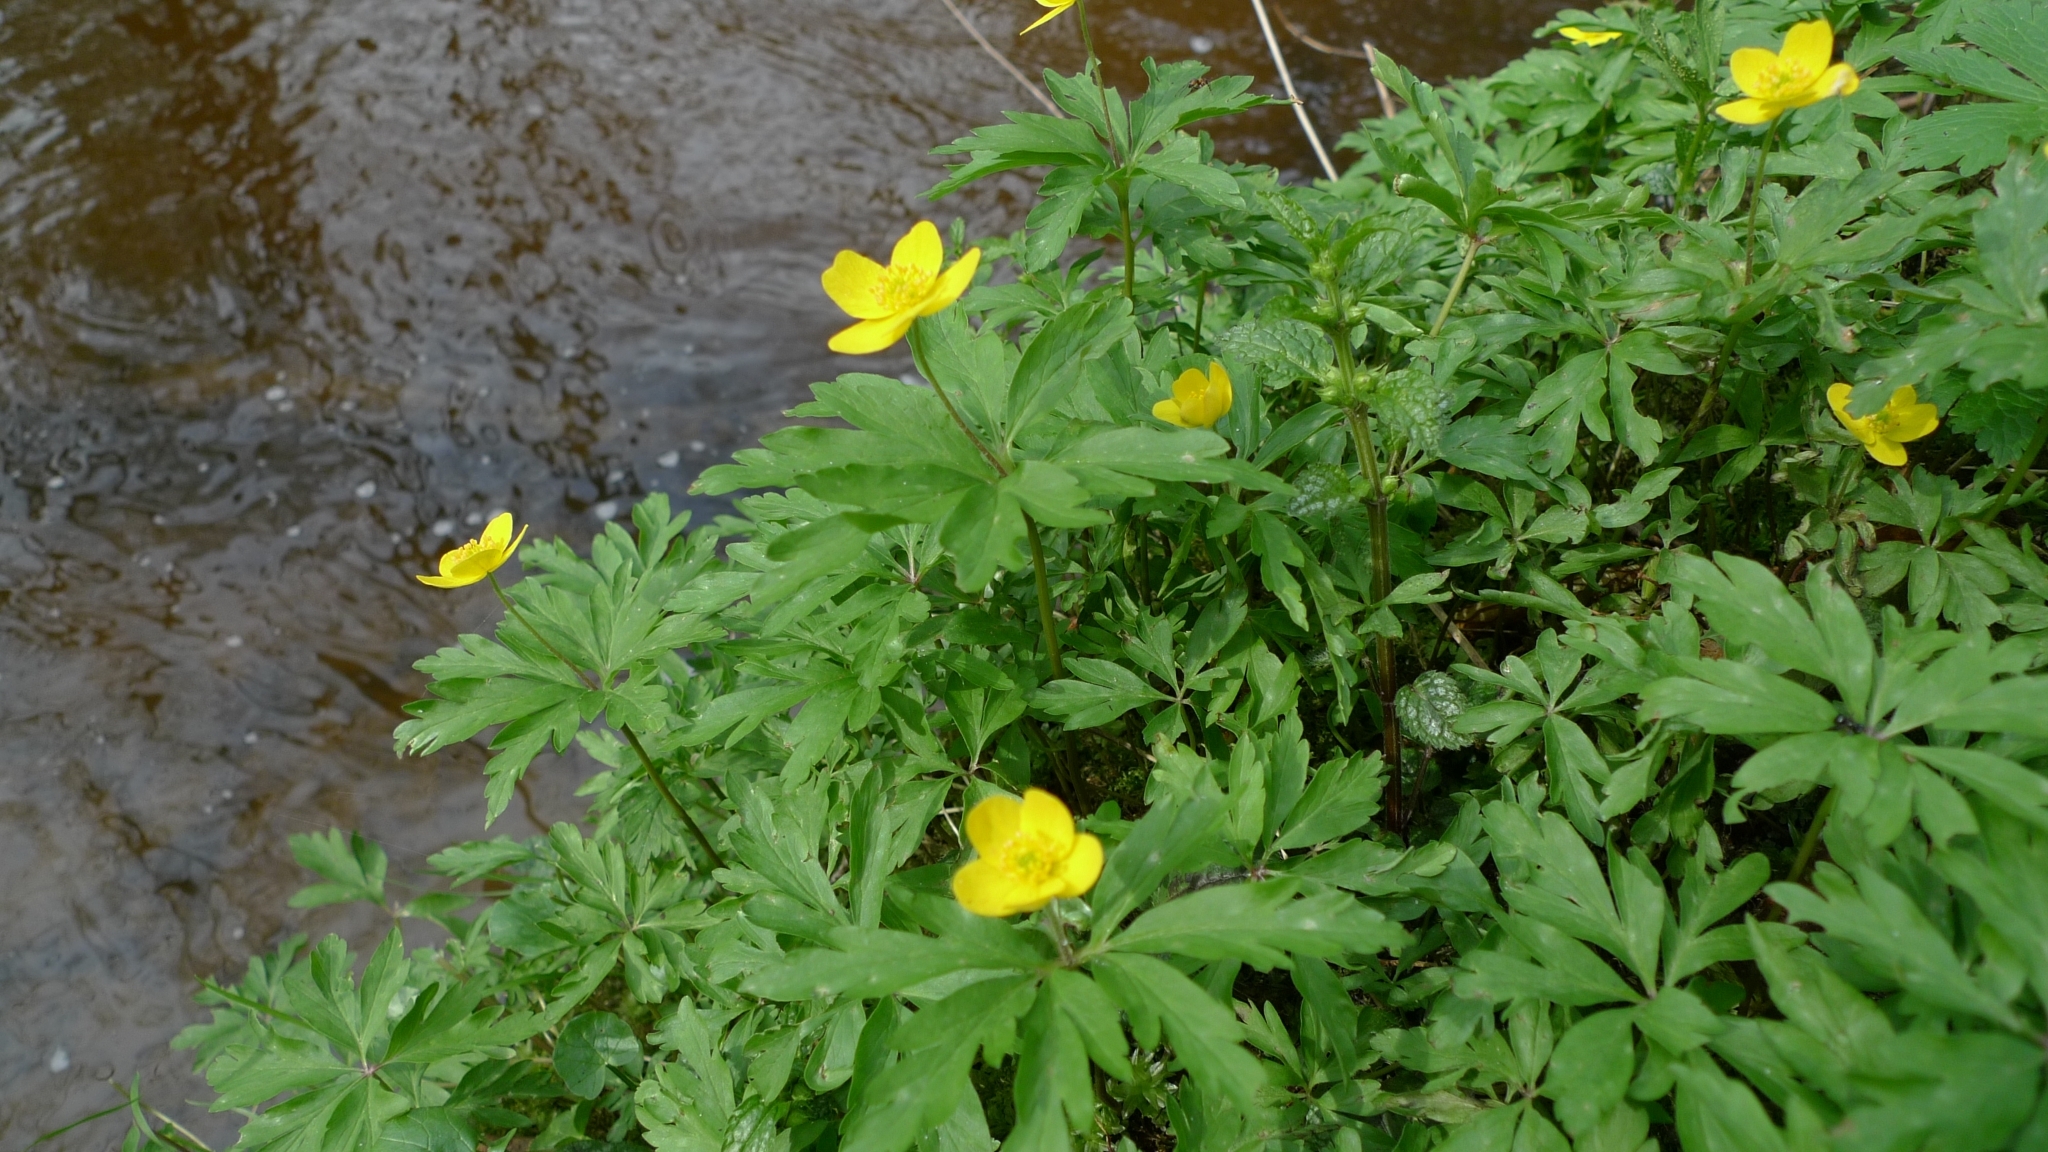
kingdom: Plantae
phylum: Tracheophyta
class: Magnoliopsida
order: Ranunculales
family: Ranunculaceae
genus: Anemone
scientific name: Anemone ranunculoides
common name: Yellow anemone
